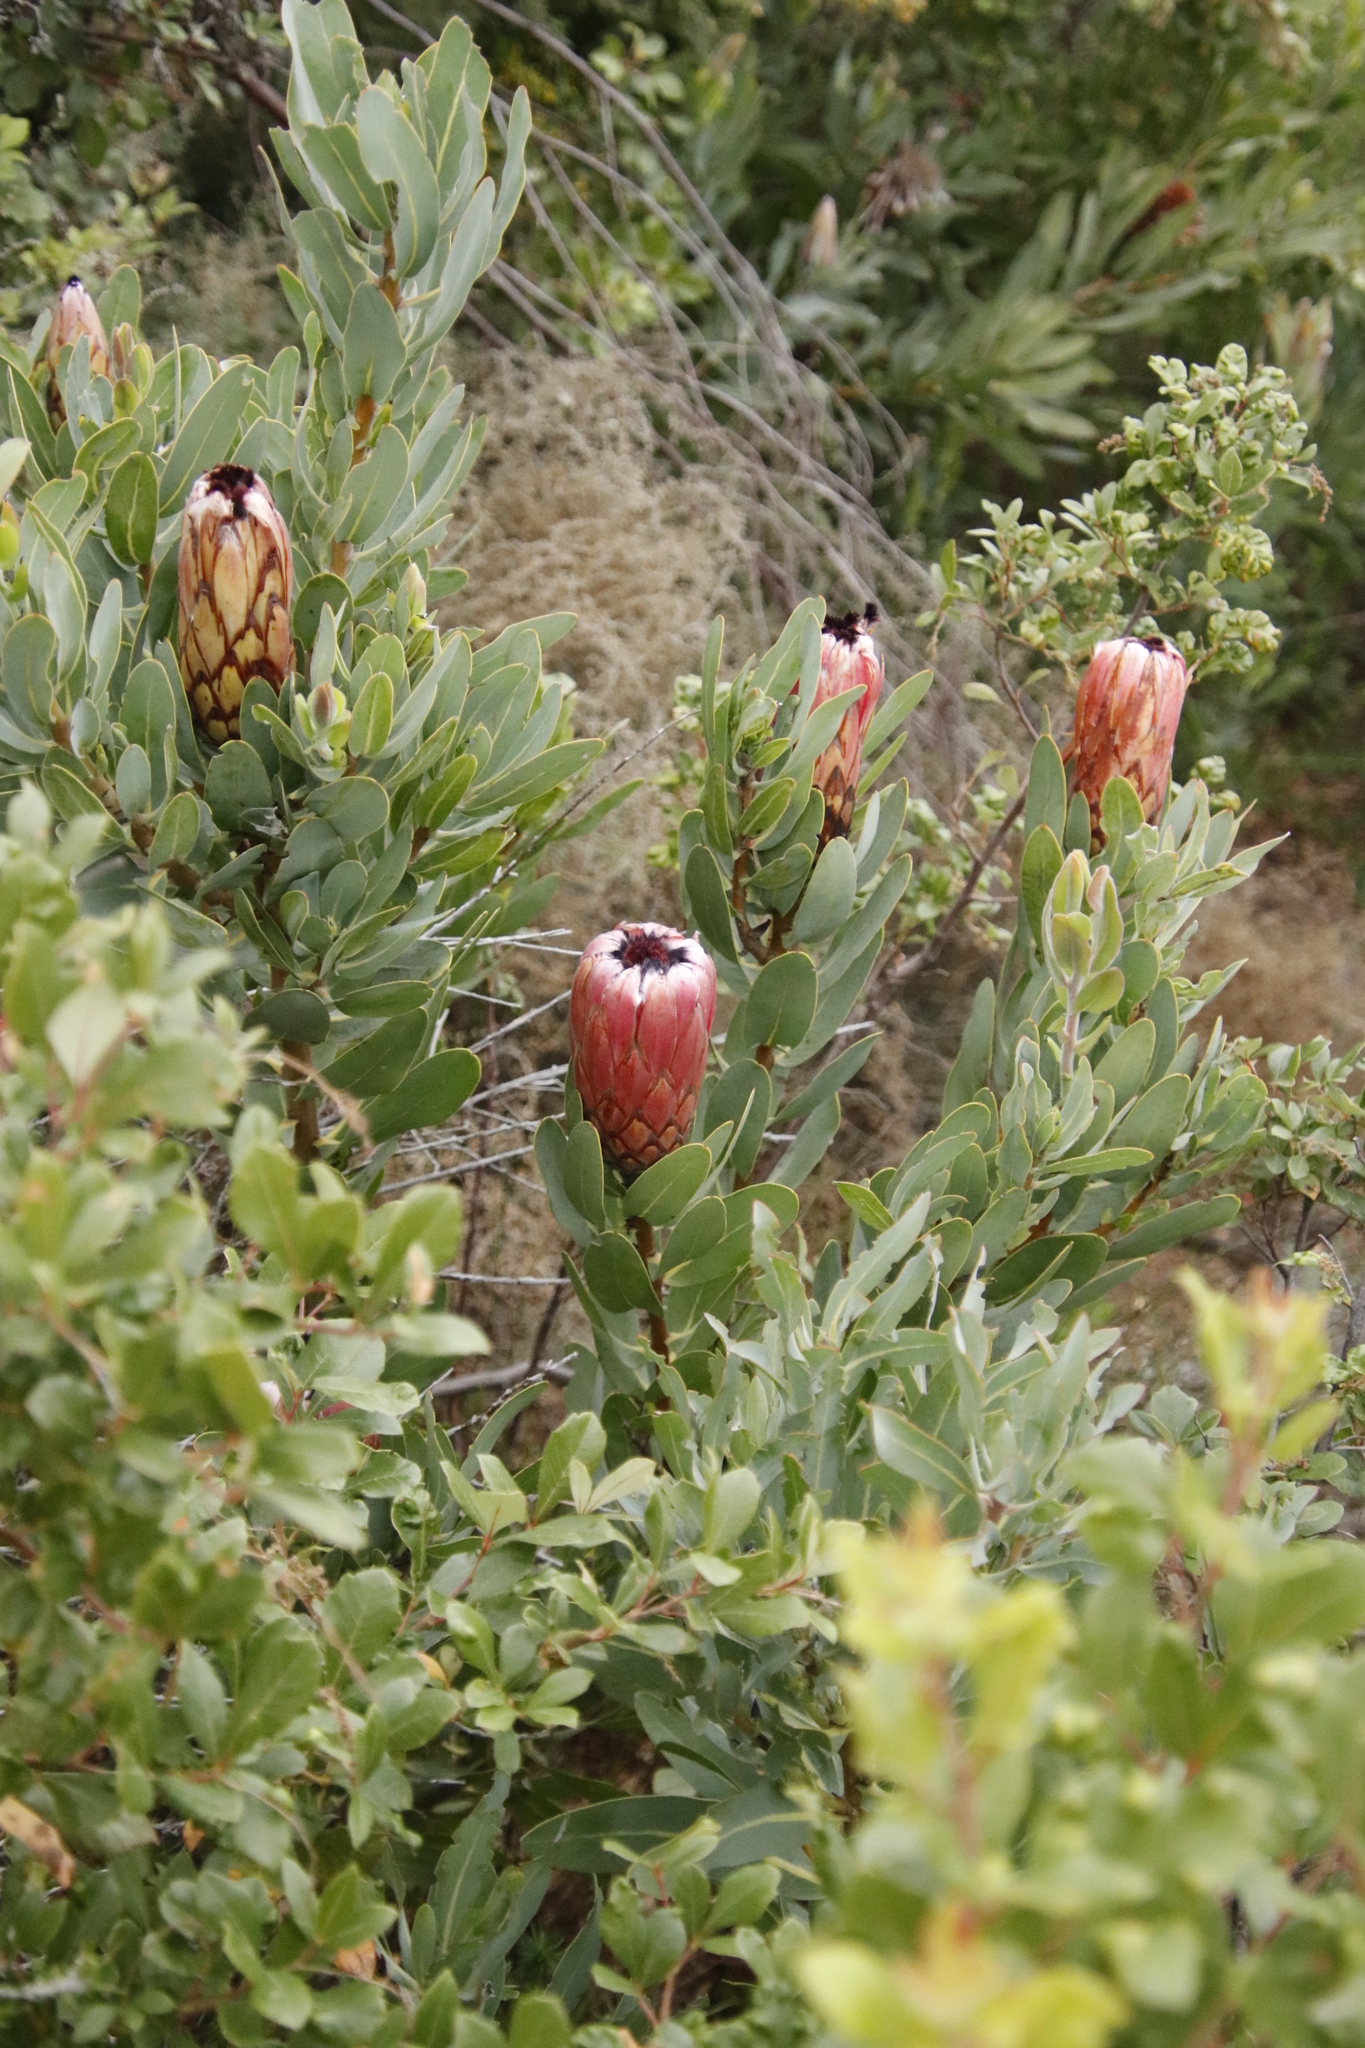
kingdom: Plantae
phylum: Tracheophyta
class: Magnoliopsida
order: Proteales
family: Proteaceae
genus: Protea
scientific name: Protea laurifolia
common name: Grey-leaf sugarbsh
